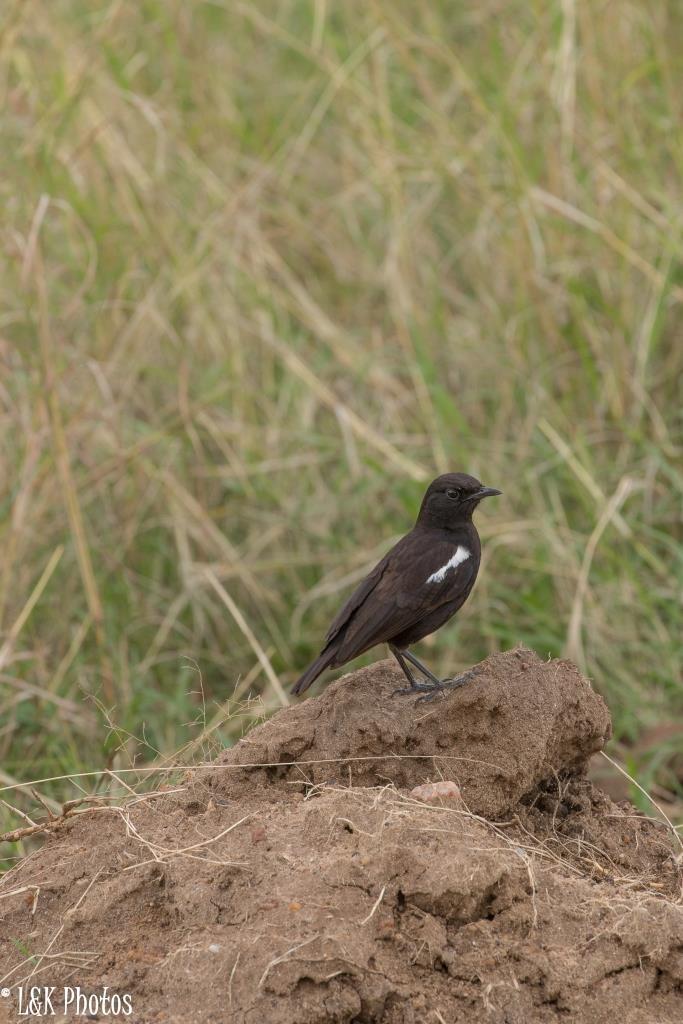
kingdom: Animalia
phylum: Chordata
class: Aves
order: Passeriformes
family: Muscicapidae
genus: Myrmecocichla
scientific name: Myrmecocichla nigra
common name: Sooty chat
